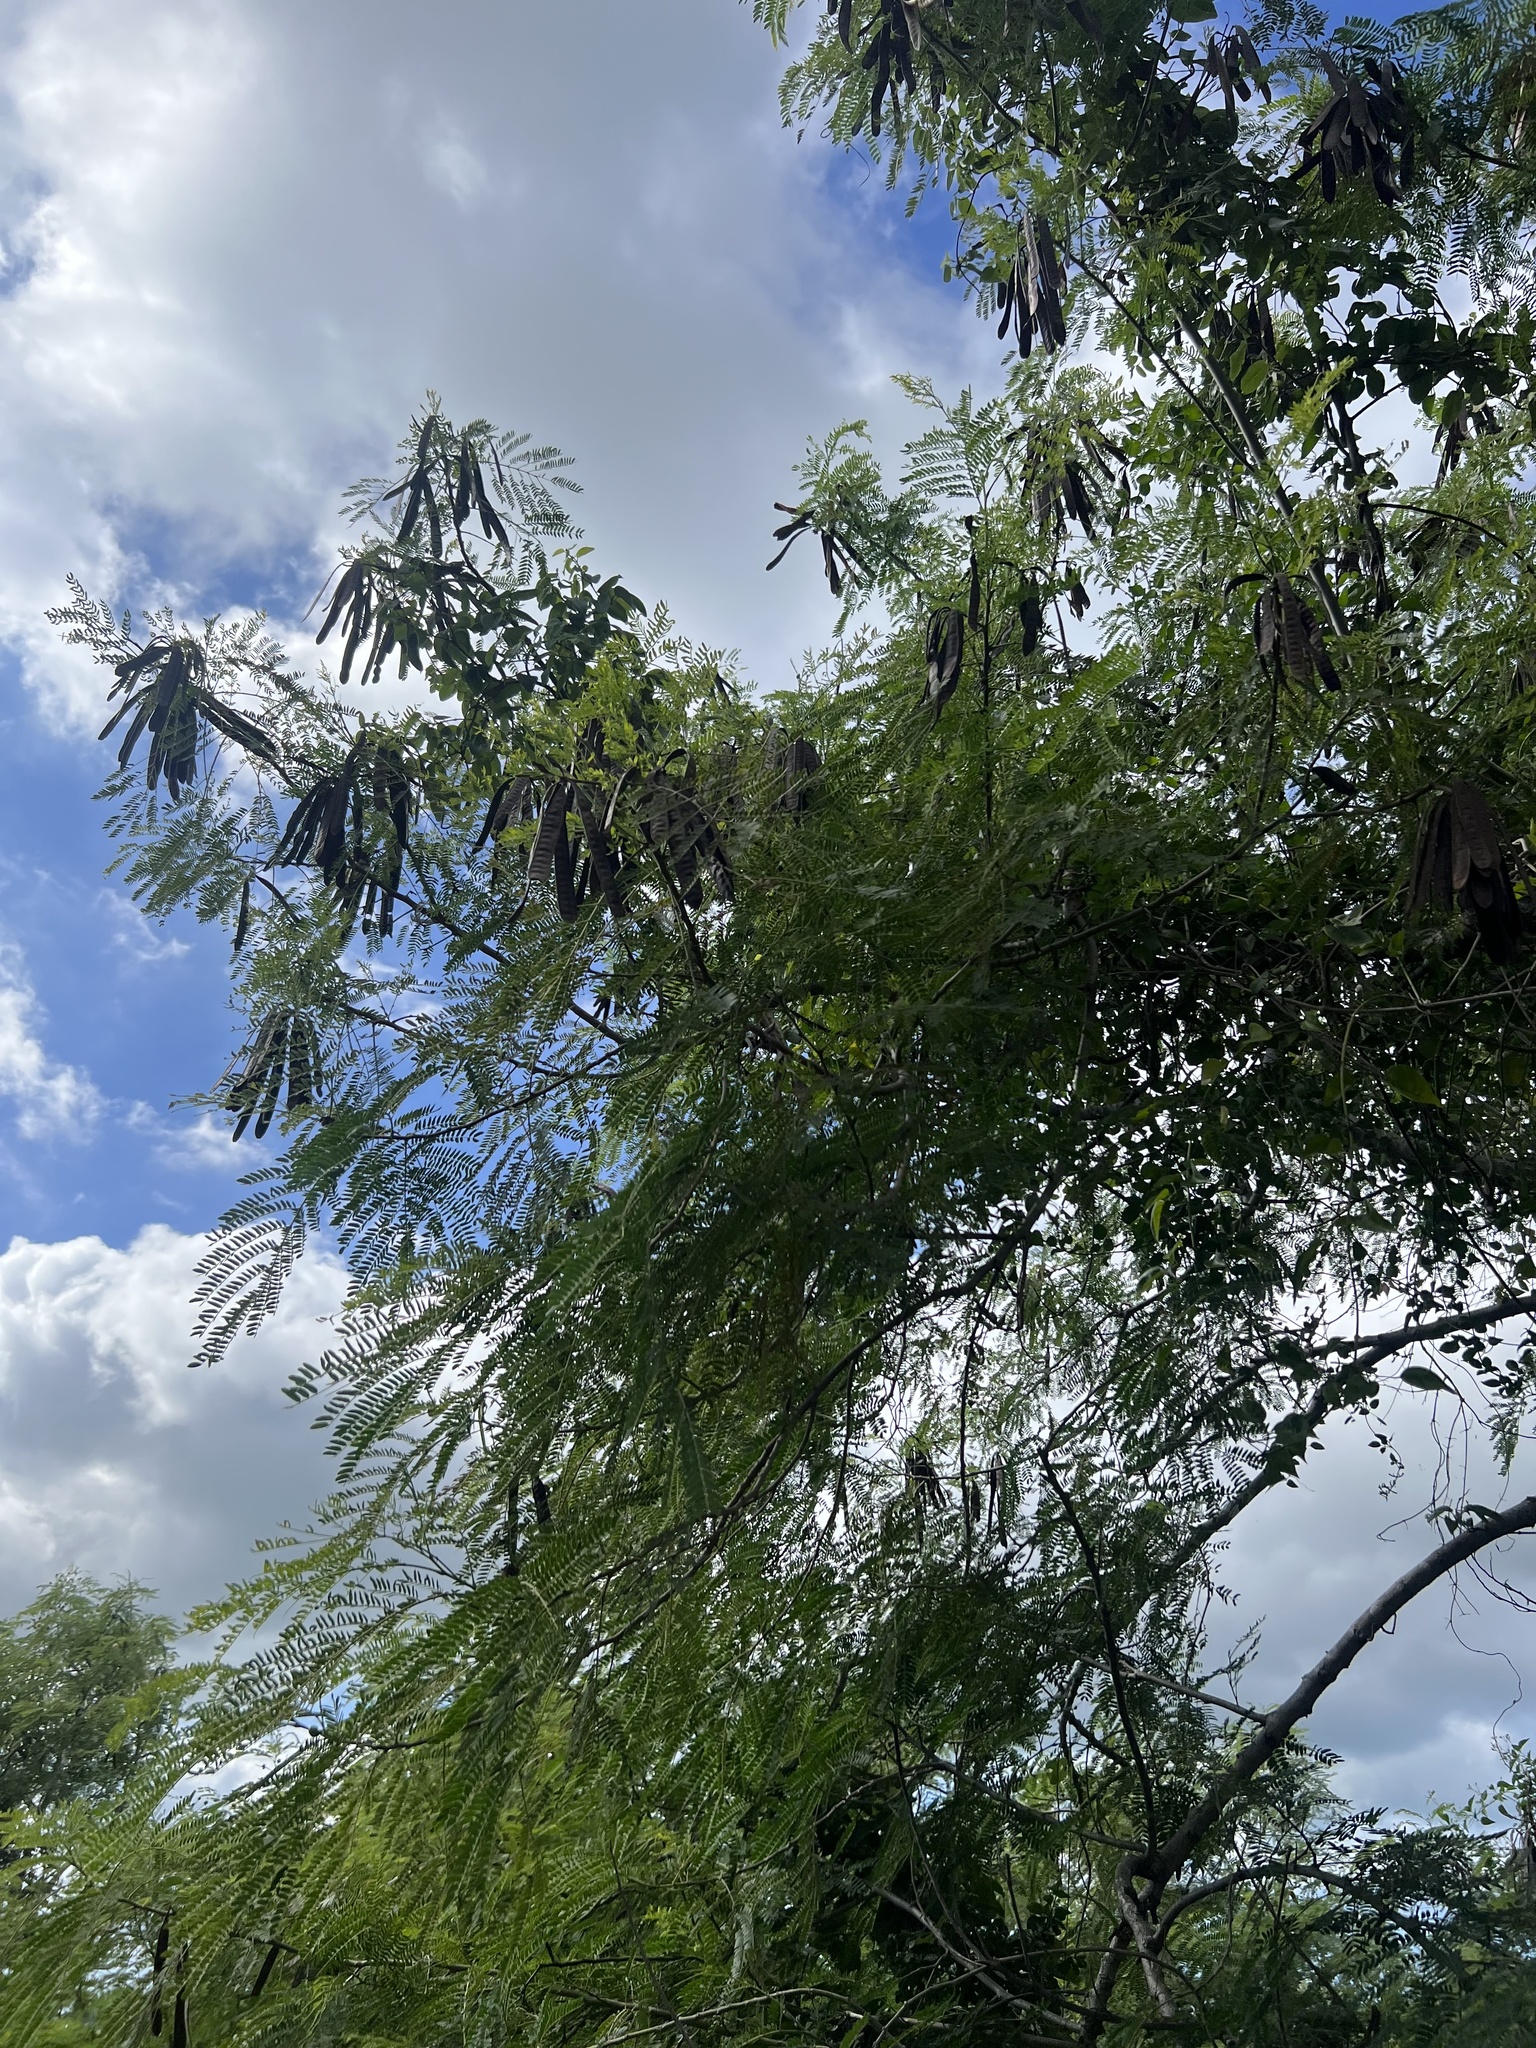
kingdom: Plantae
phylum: Tracheophyta
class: Magnoliopsida
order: Fabales
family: Fabaceae
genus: Leucaena
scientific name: Leucaena leucocephala
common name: White leadtree
